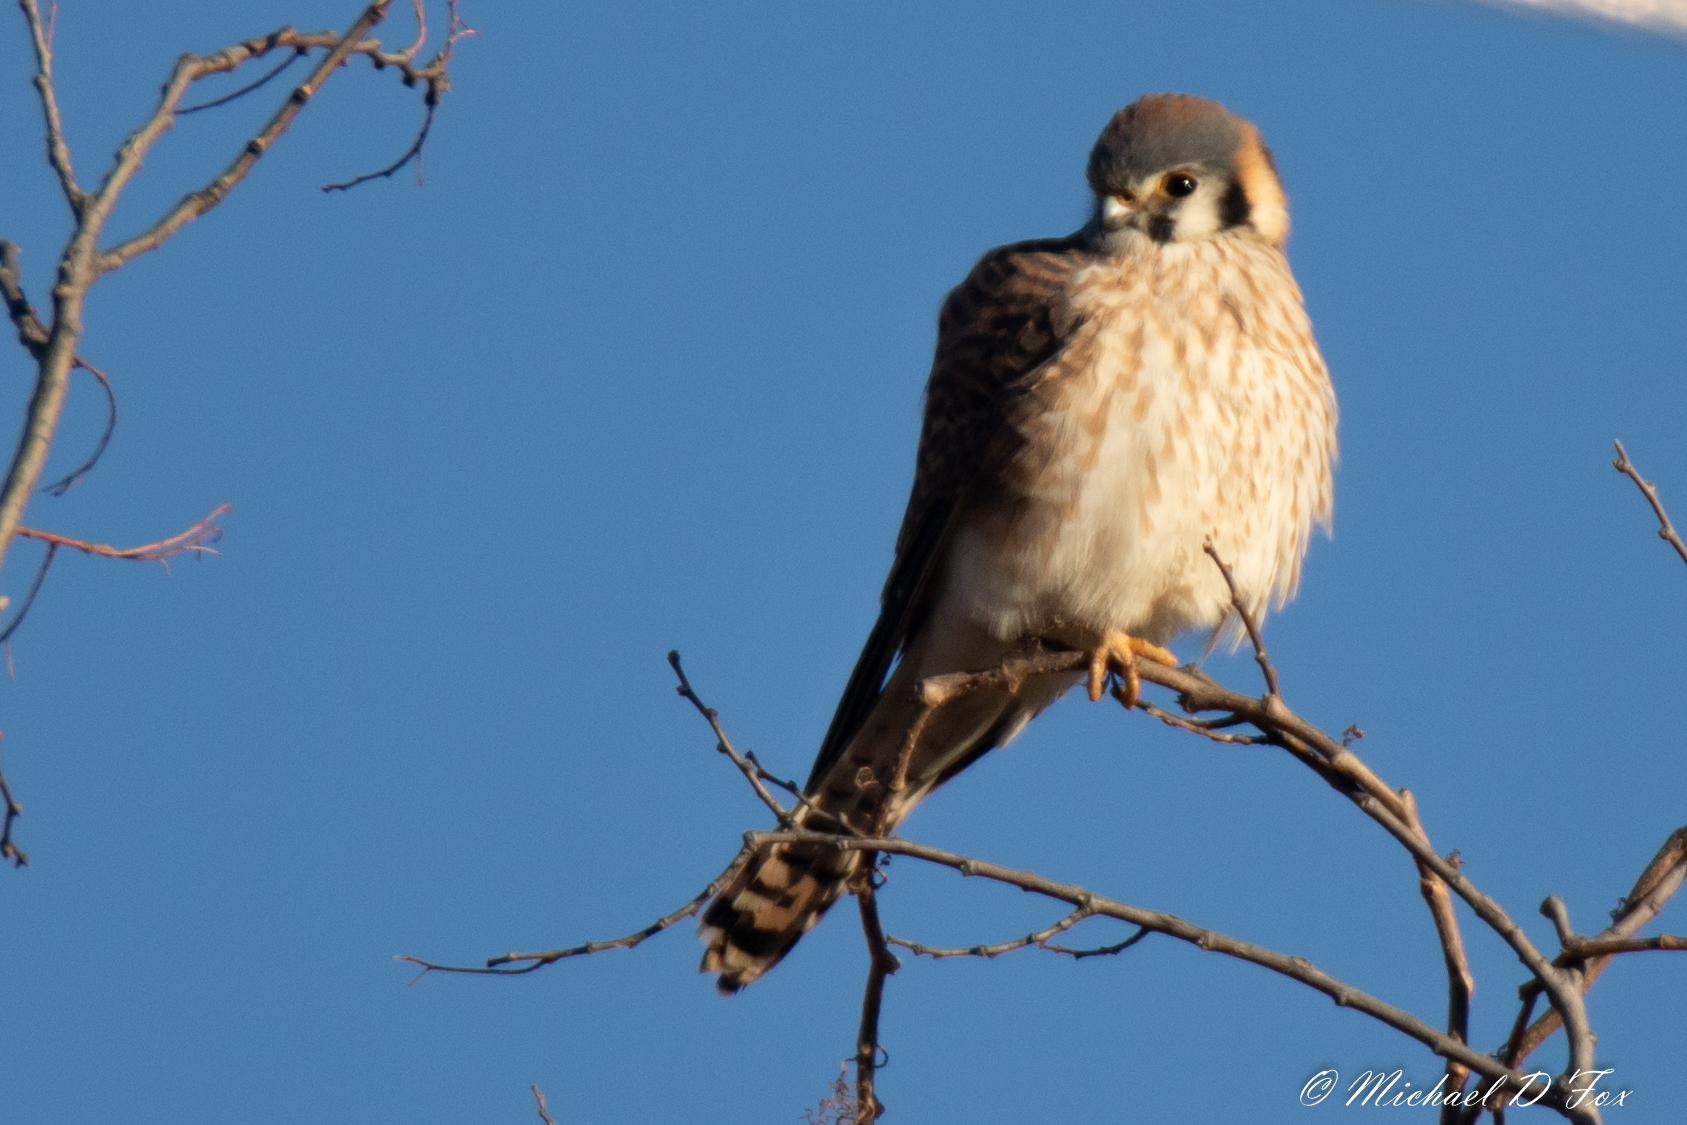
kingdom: Animalia
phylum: Chordata
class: Aves
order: Falconiformes
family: Falconidae
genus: Falco
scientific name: Falco sparverius
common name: American kestrel
